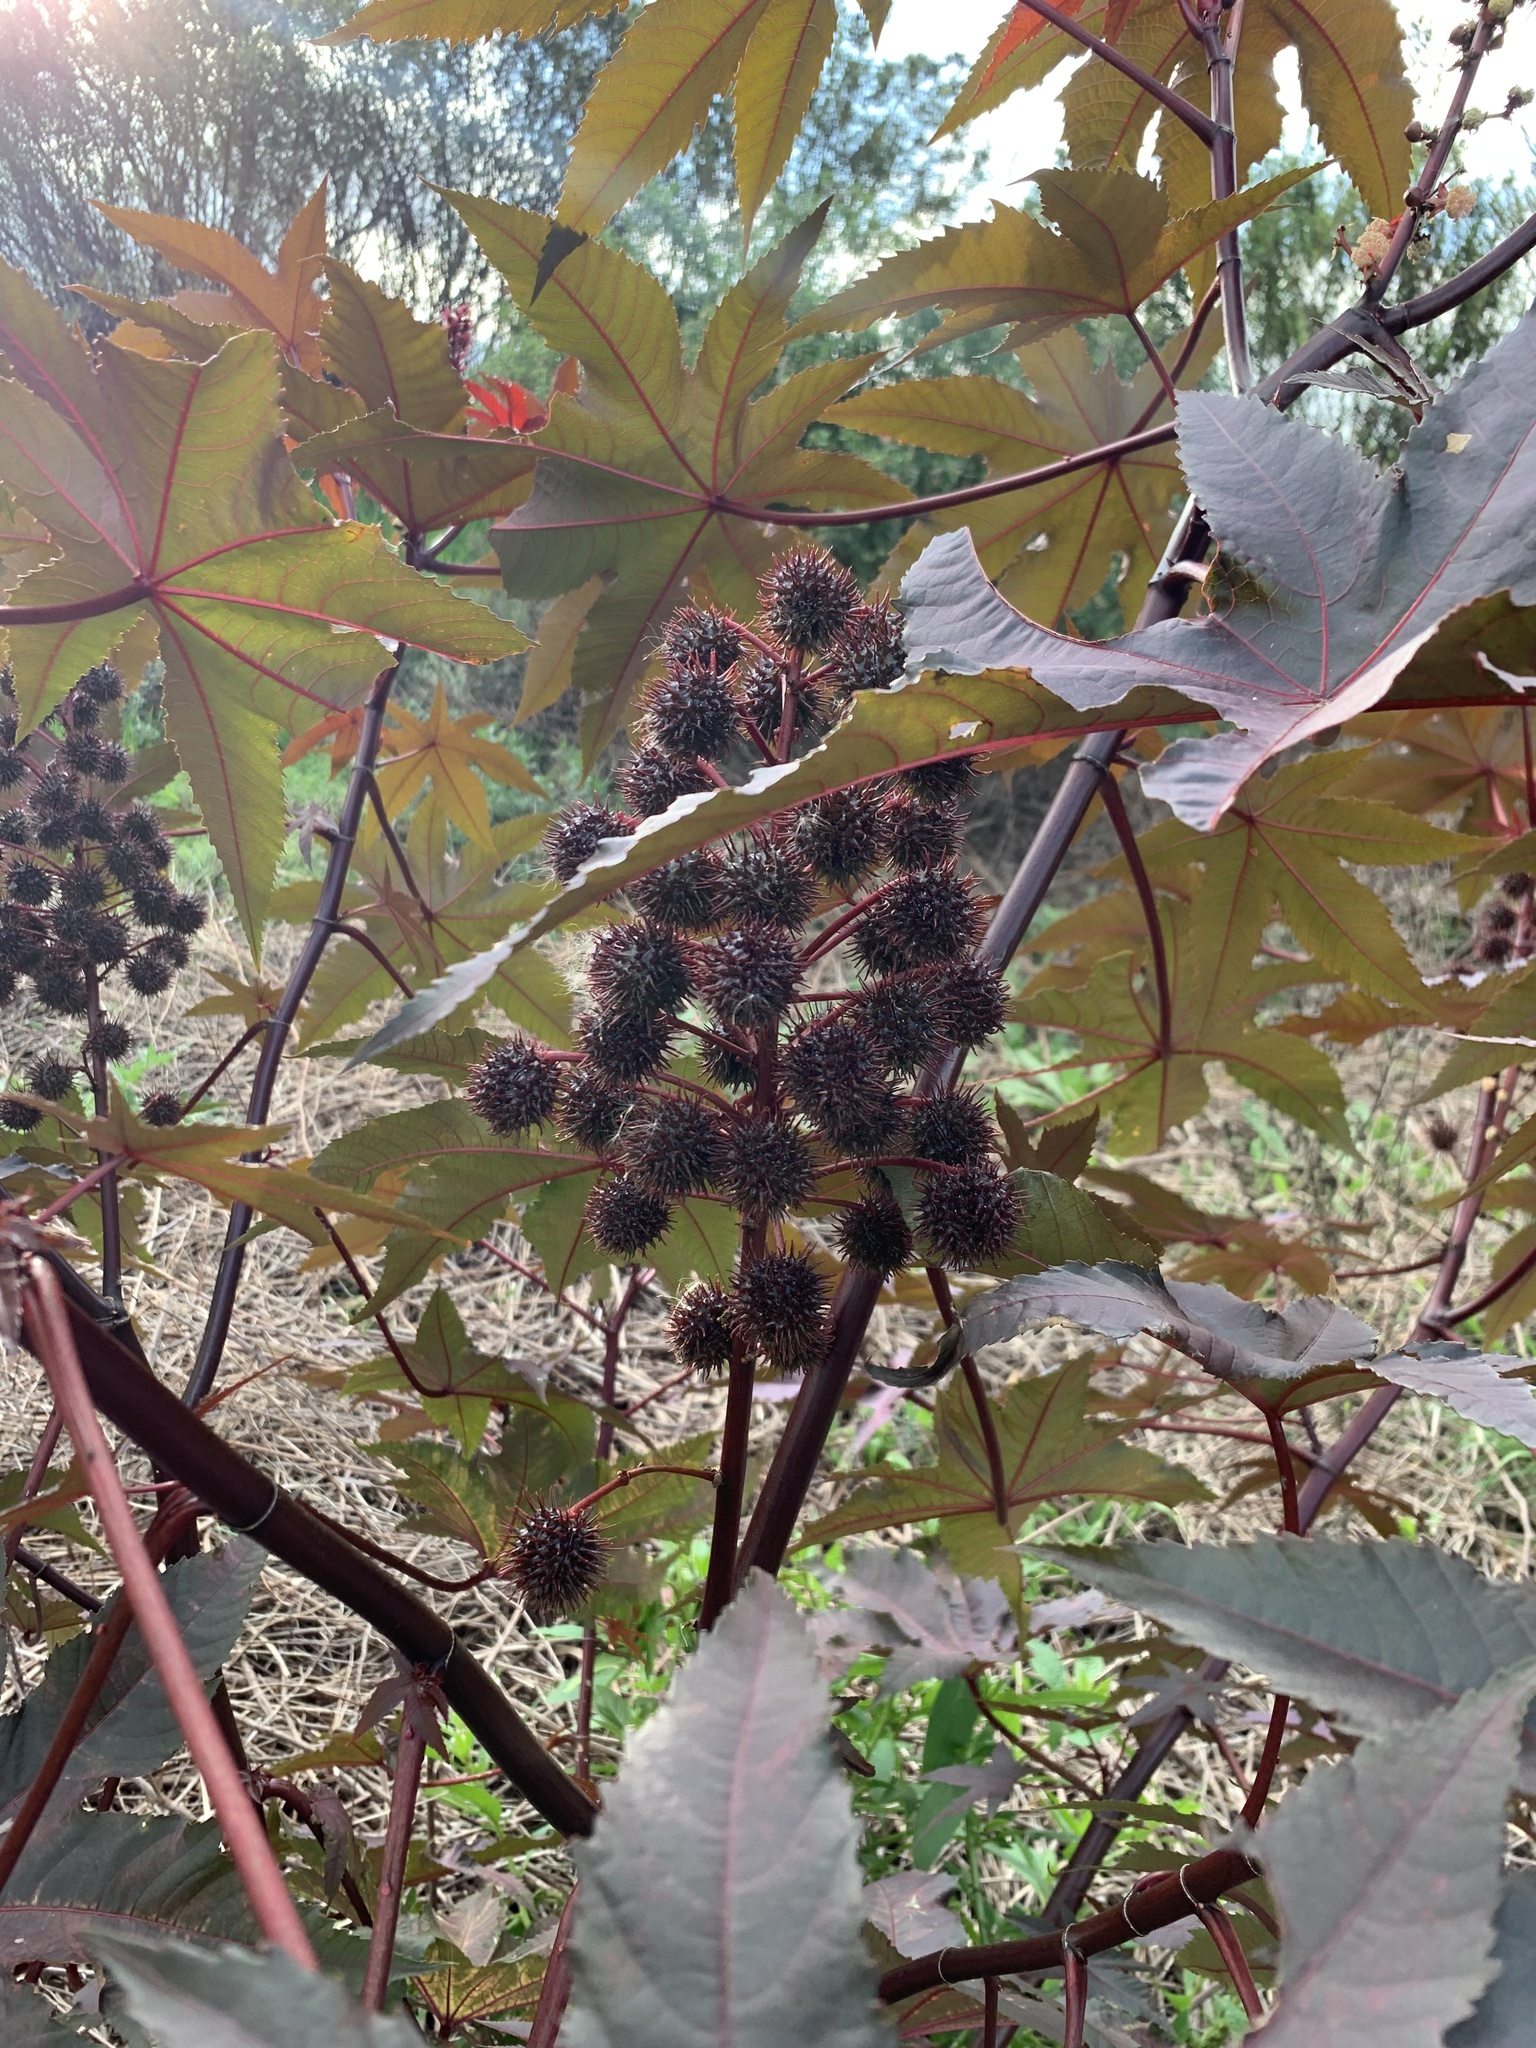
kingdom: Plantae
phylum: Tracheophyta
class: Magnoliopsida
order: Malpighiales
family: Euphorbiaceae
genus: Ricinus
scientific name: Ricinus communis
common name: Castor-oil-plant
